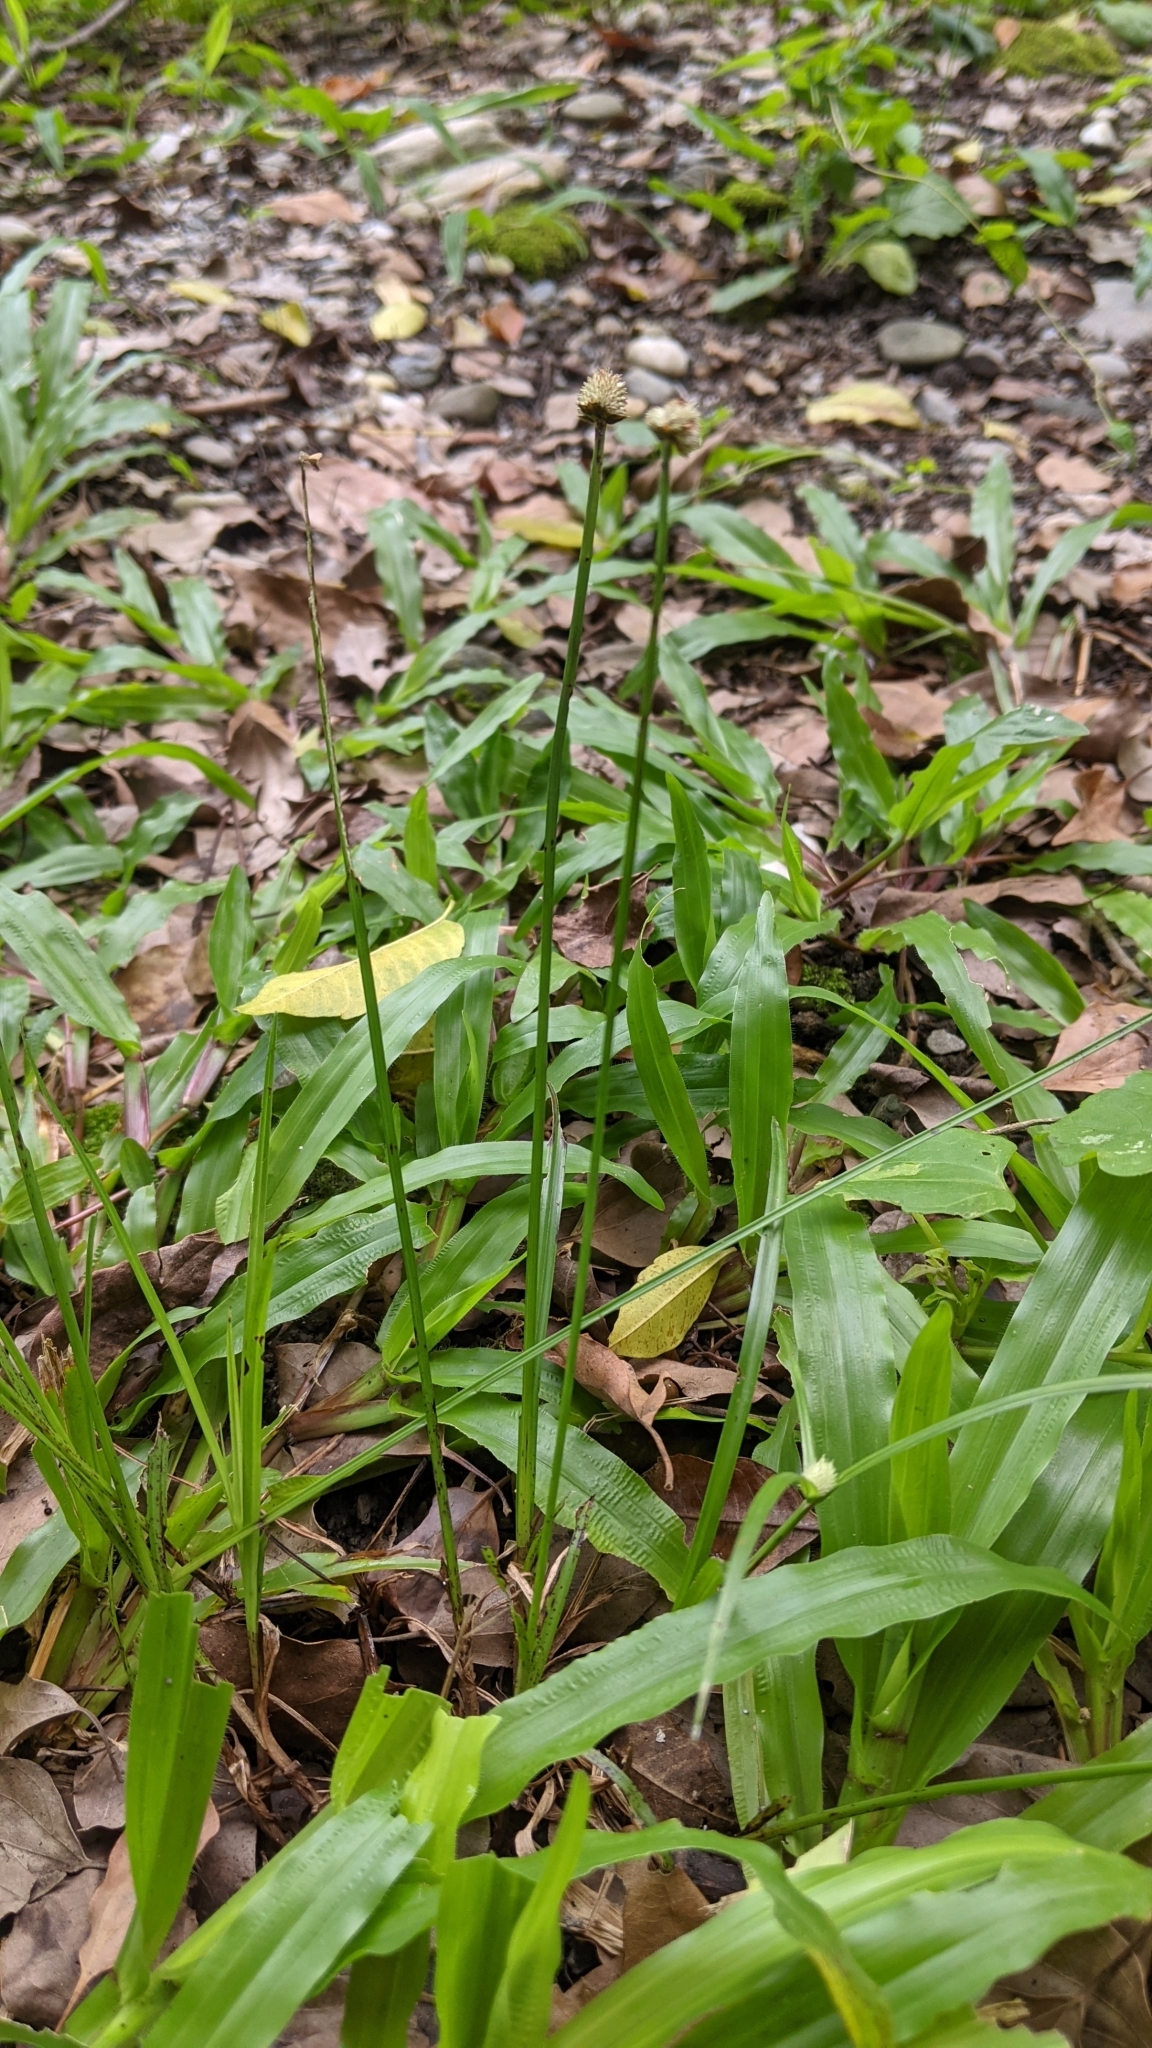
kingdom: Plantae
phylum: Tracheophyta
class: Liliopsida
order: Poales
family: Cyperaceae
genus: Cyperus
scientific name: Cyperus mindorensis
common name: Flatsedge
